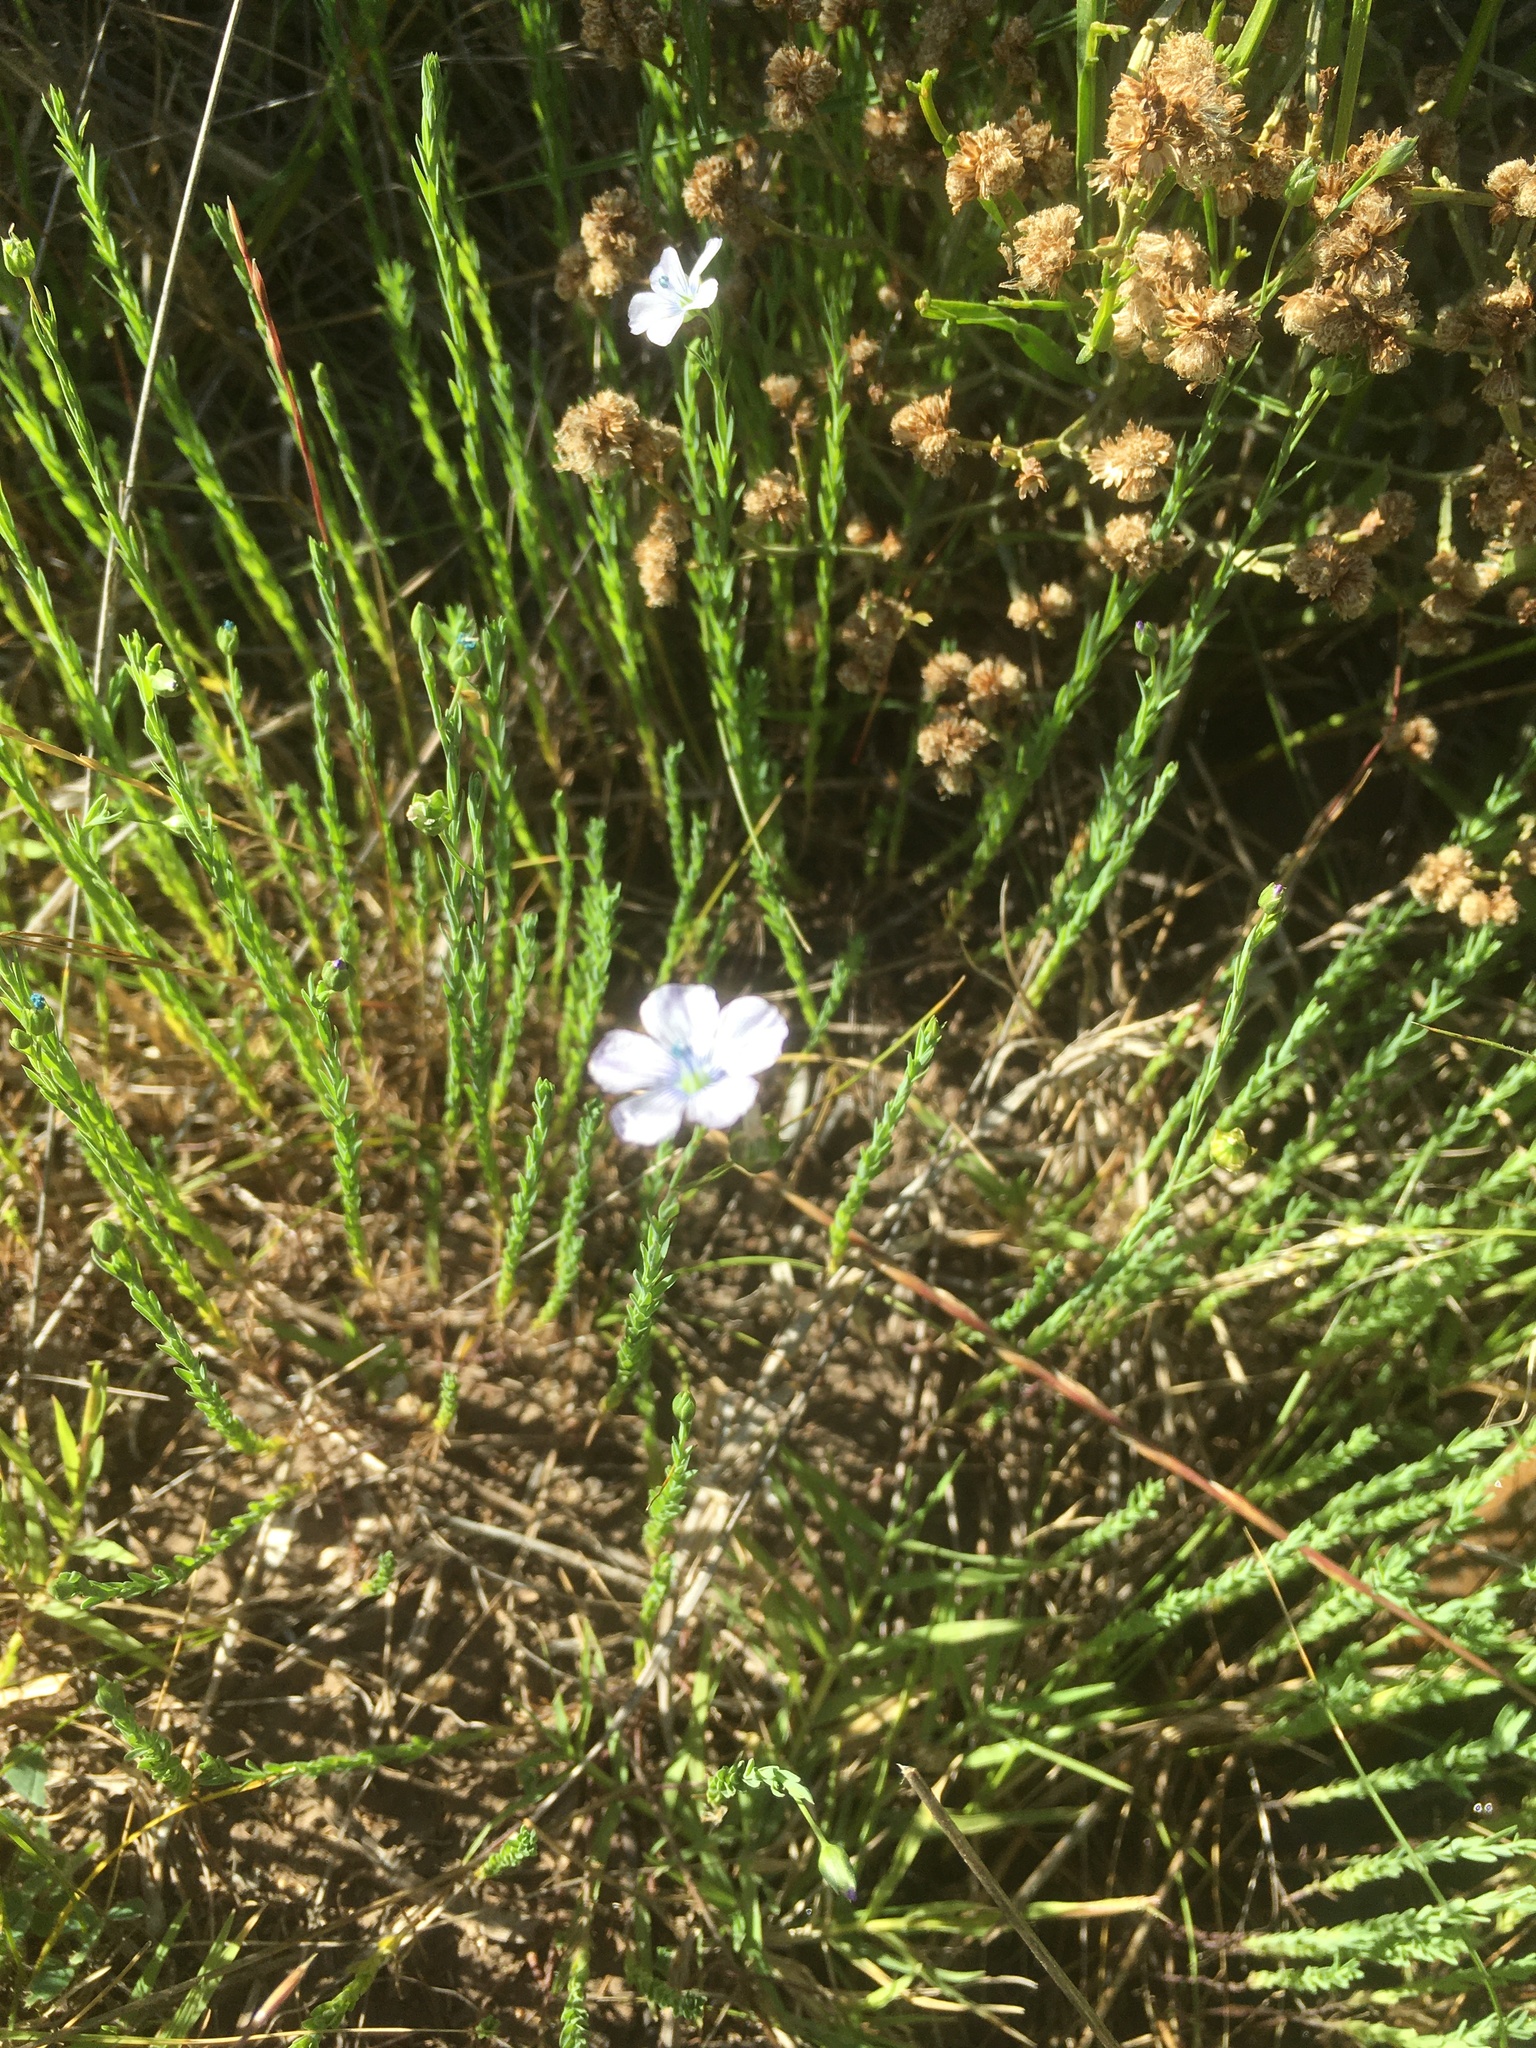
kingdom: Plantae
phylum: Tracheophyta
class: Magnoliopsida
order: Malpighiales
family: Linaceae
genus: Linum
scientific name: Linum bienne
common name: Pale flax
